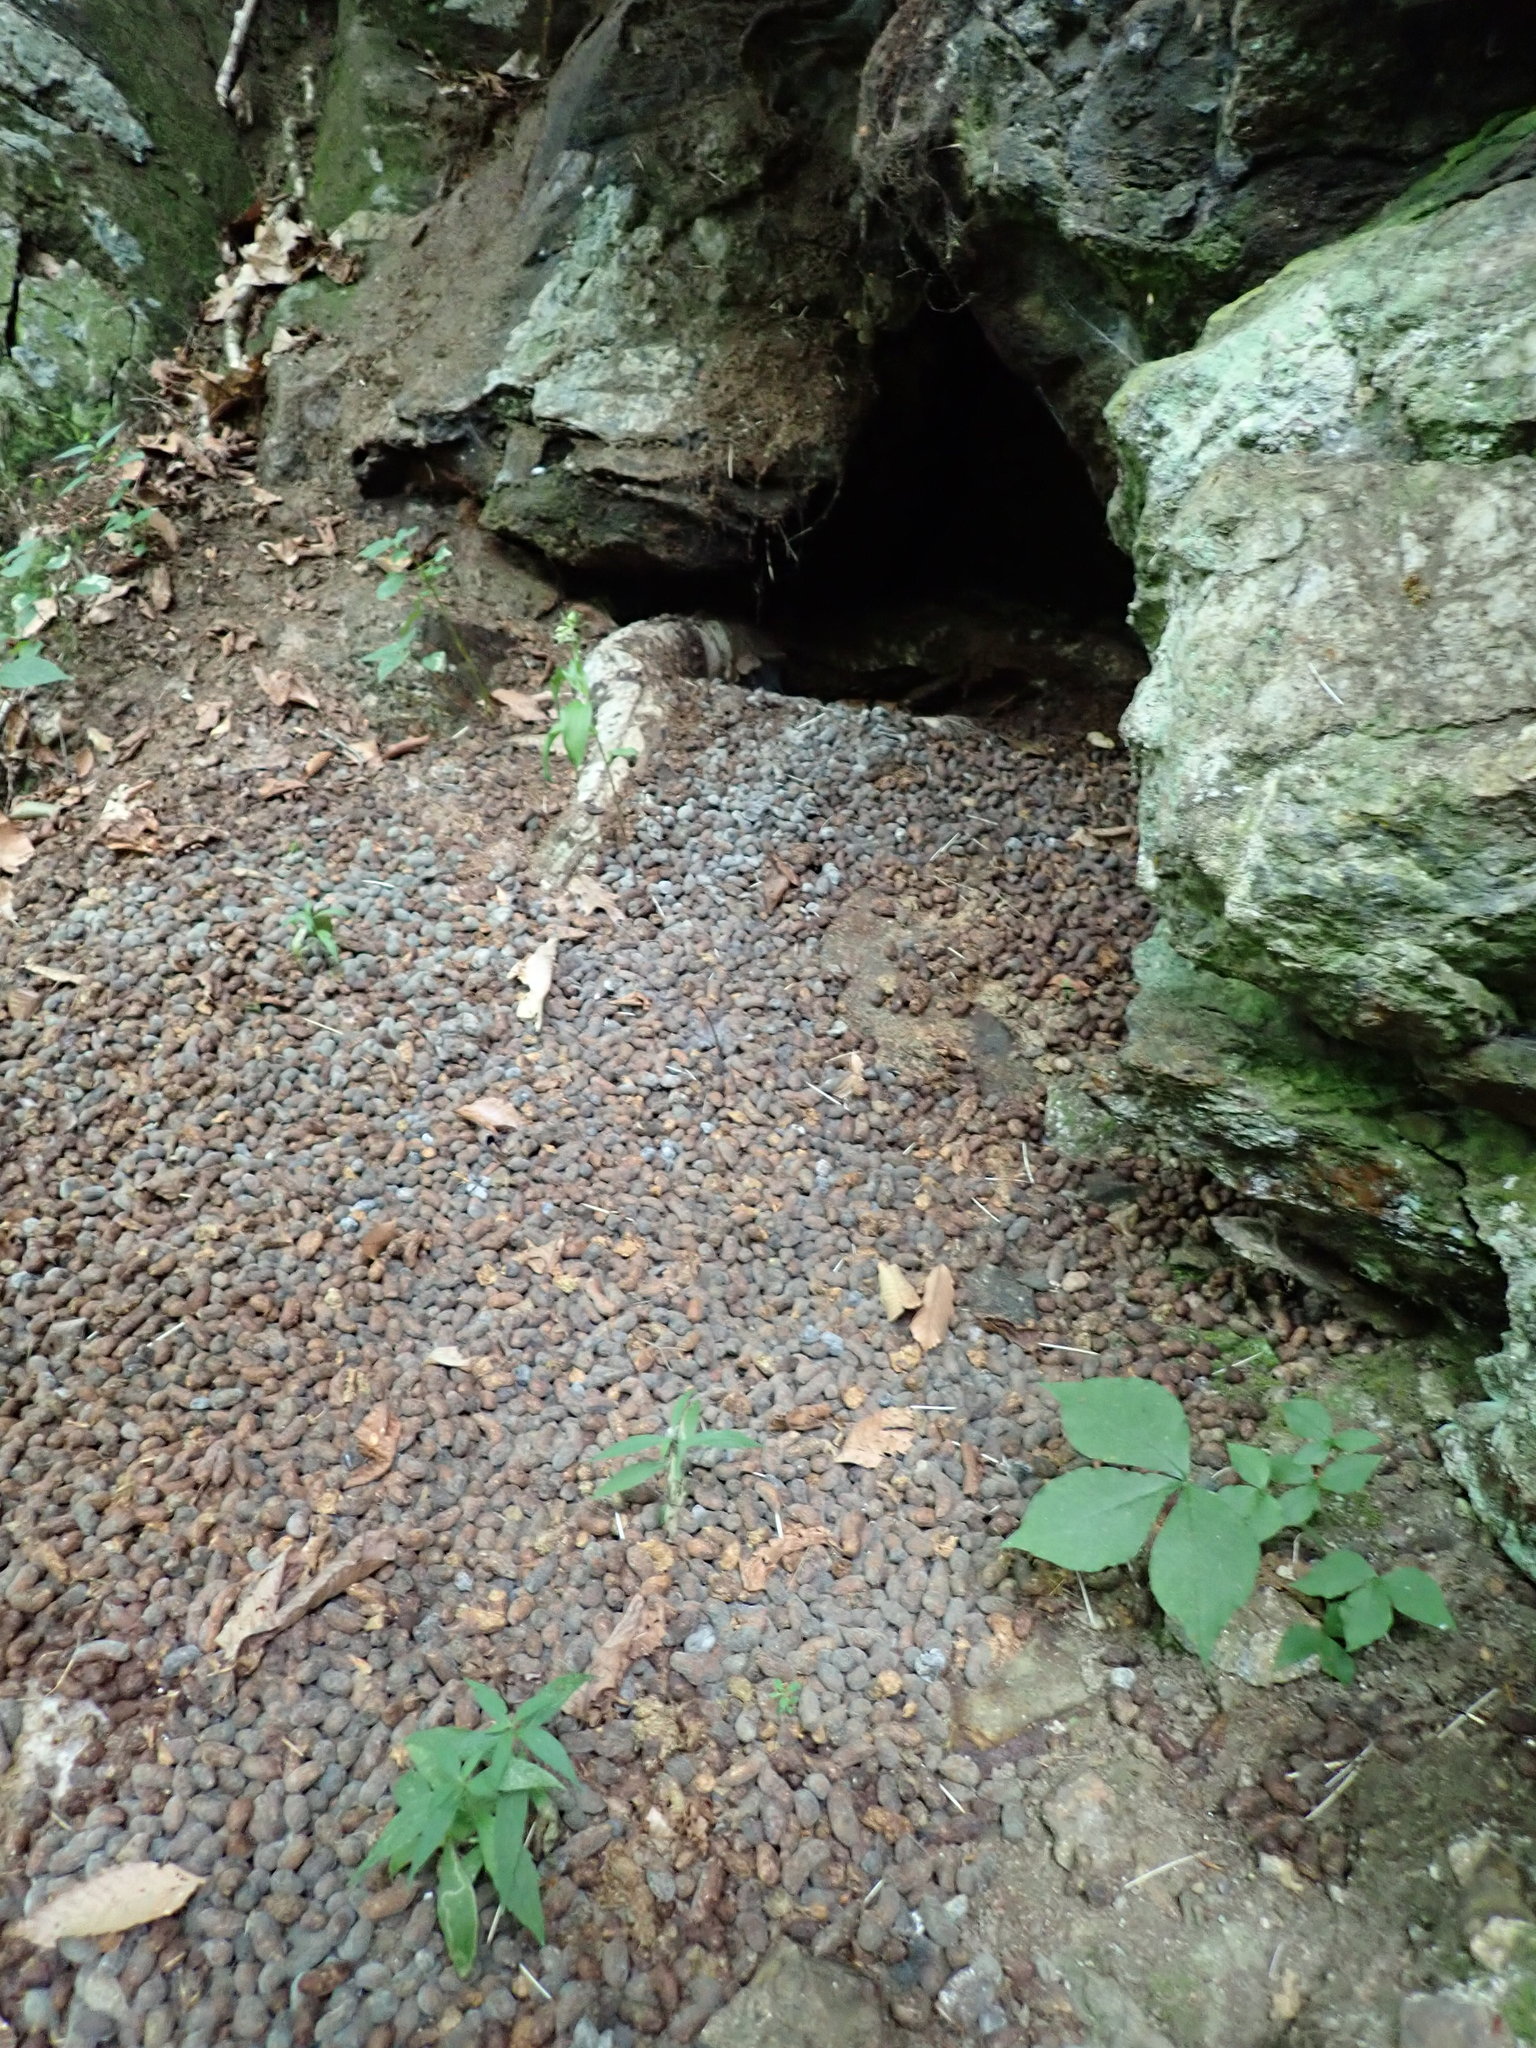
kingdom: Animalia
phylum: Chordata
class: Mammalia
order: Rodentia
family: Erethizontidae
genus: Erethizon
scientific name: Erethizon dorsatus
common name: North american porcupine
